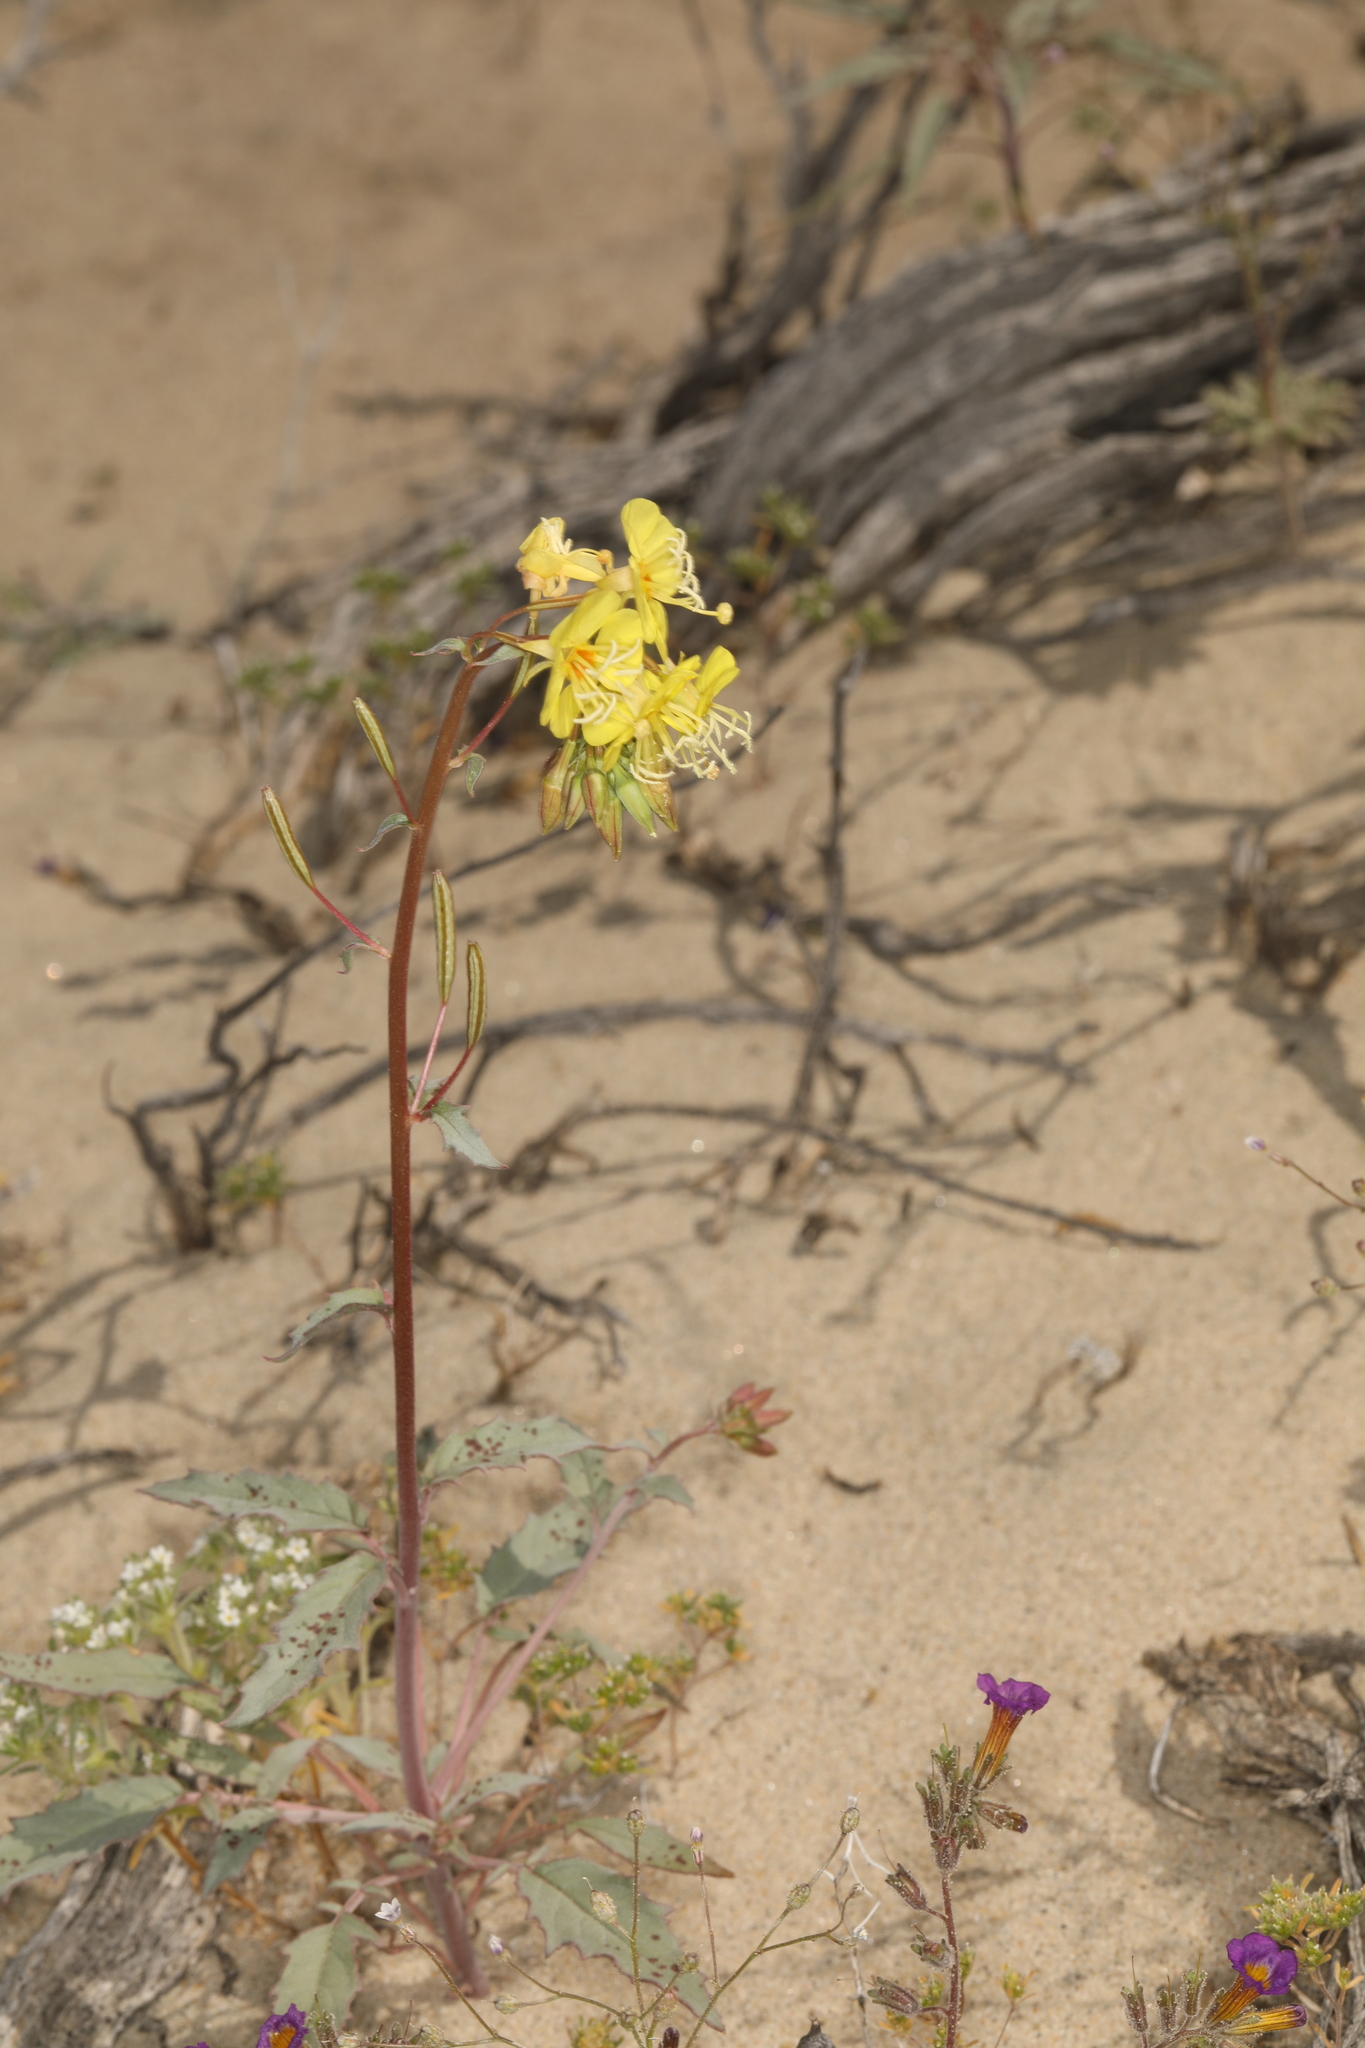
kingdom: Plantae
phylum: Tracheophyta
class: Magnoliopsida
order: Myrtales
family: Onagraceae
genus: Chylismia
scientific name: Chylismia claviformis
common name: Browneyes
